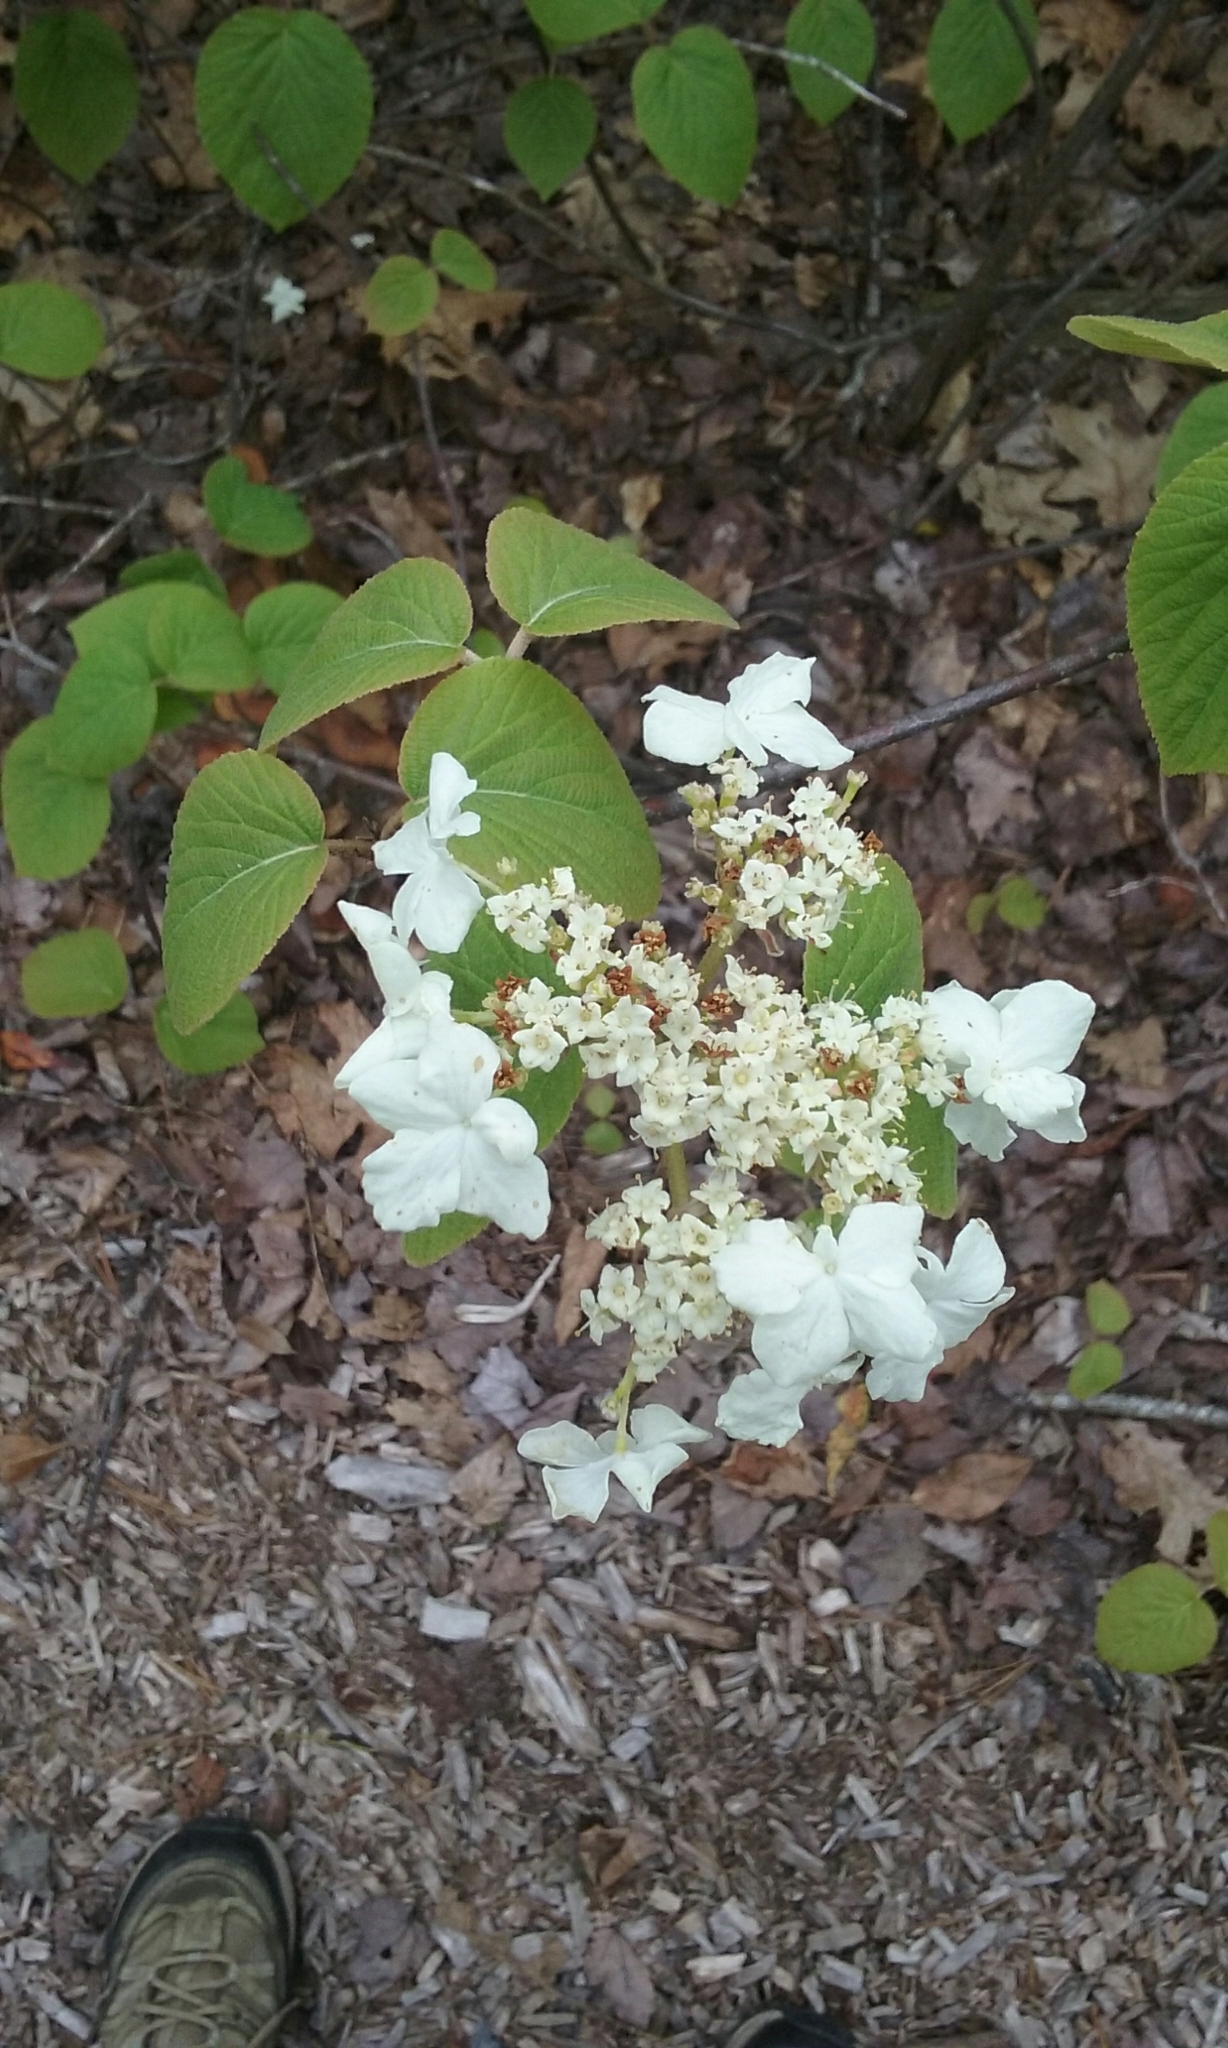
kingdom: Plantae
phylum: Tracheophyta
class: Magnoliopsida
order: Dipsacales
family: Viburnaceae
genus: Viburnum
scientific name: Viburnum lantanoides
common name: Hobblebush
